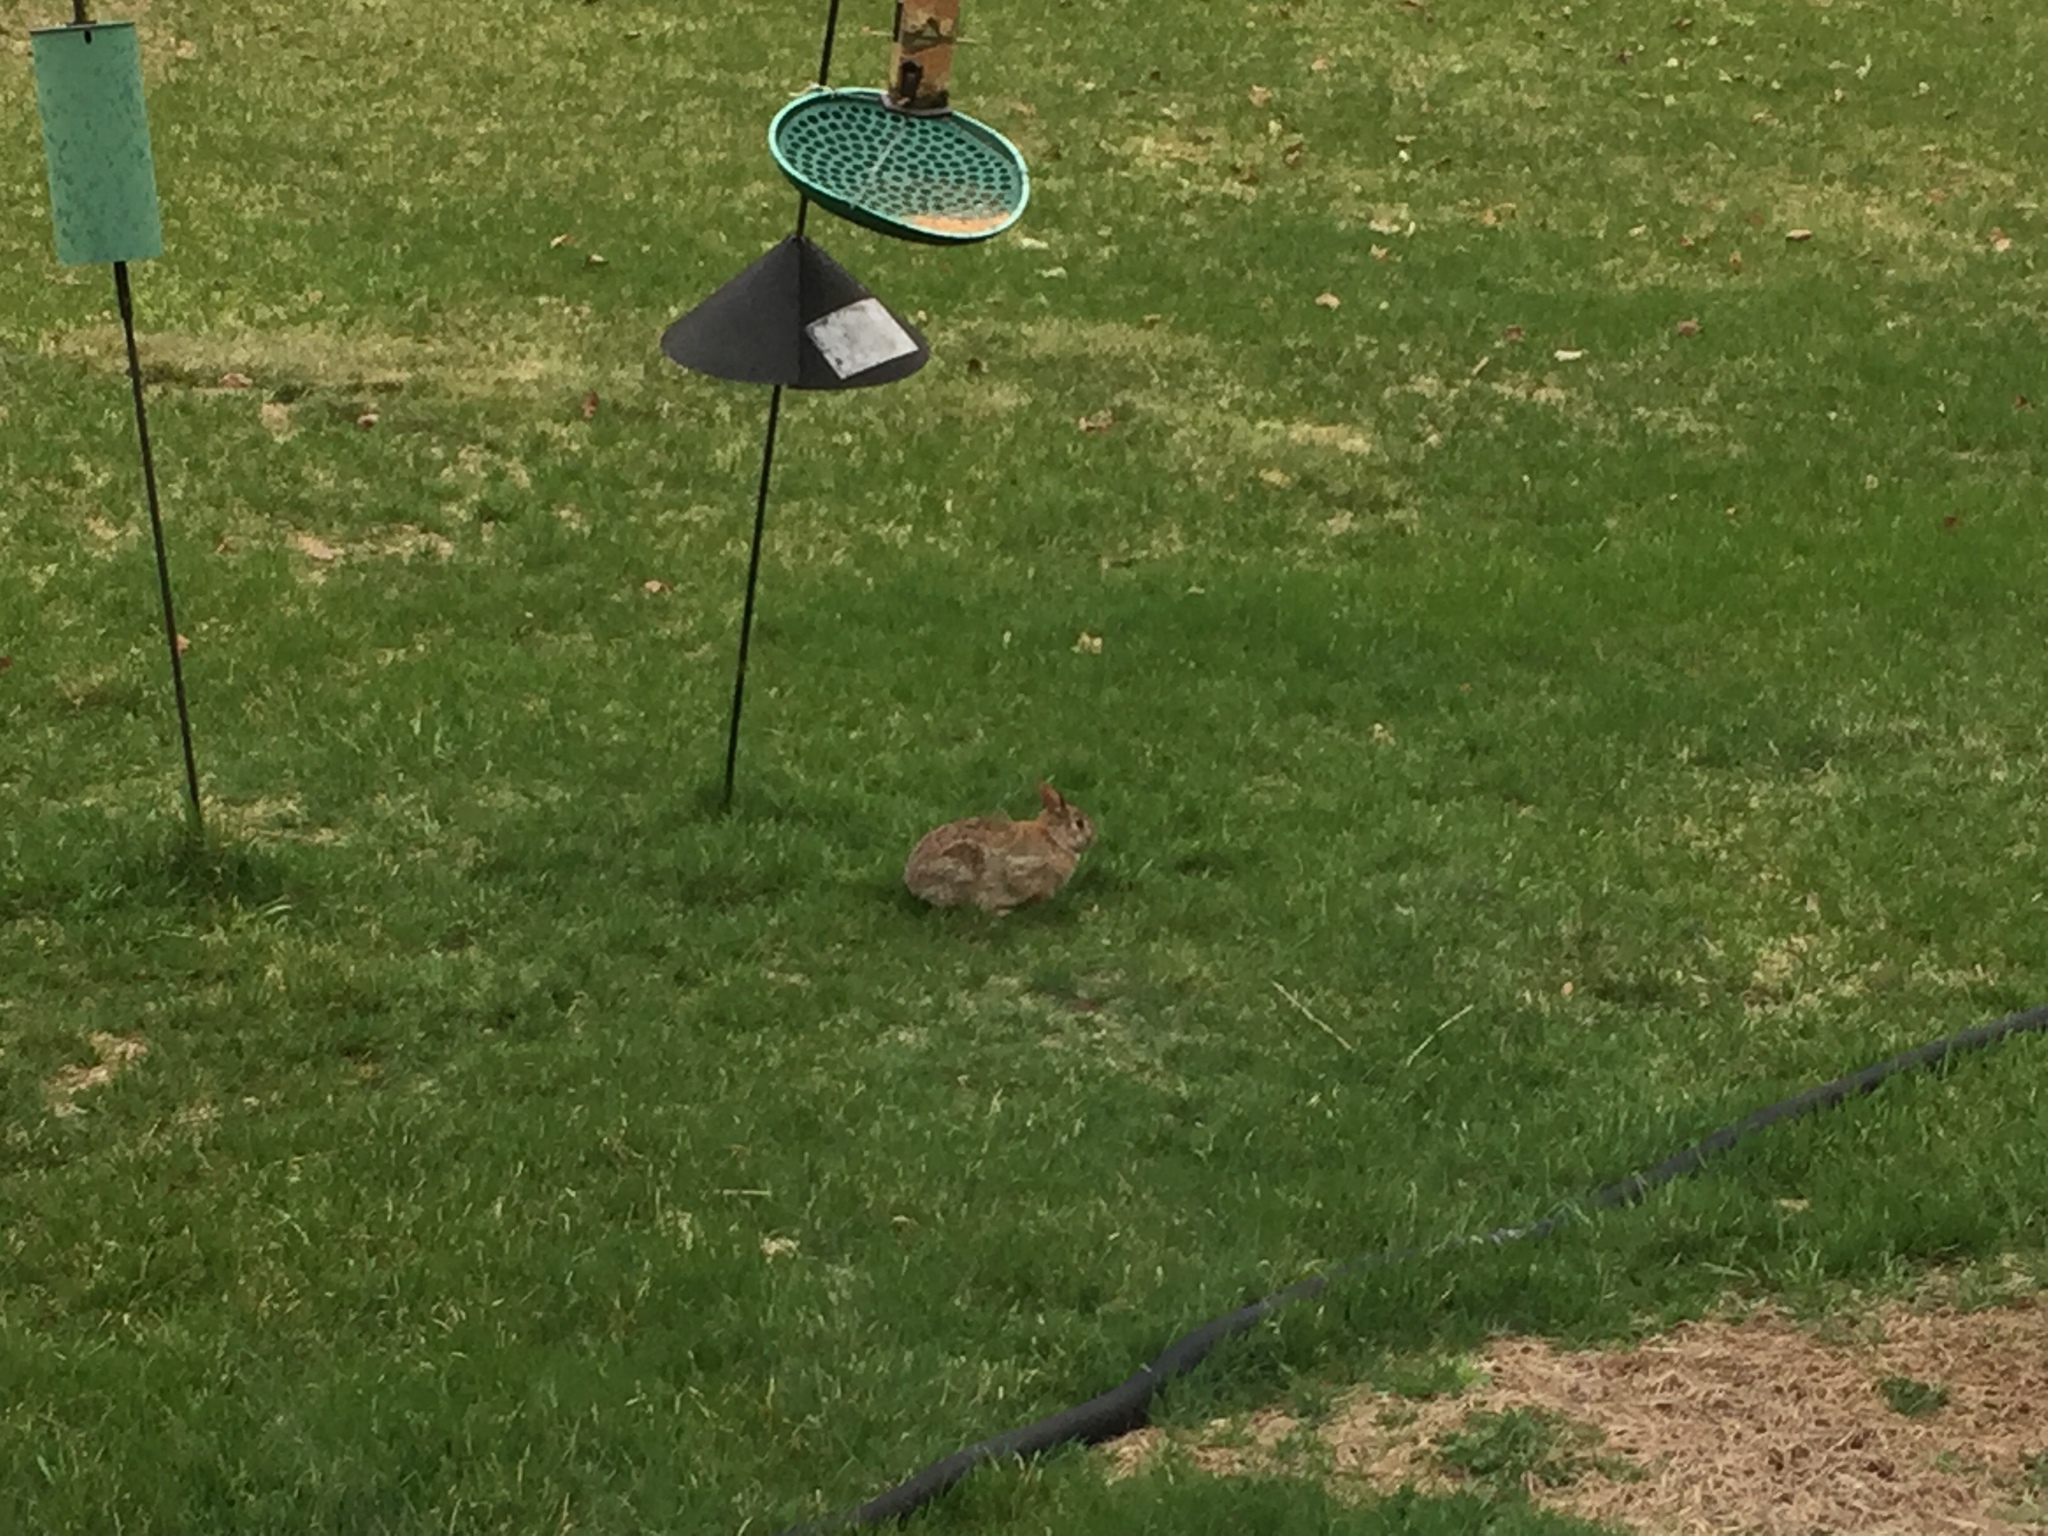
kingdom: Animalia
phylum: Chordata
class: Mammalia
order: Lagomorpha
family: Leporidae
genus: Sylvilagus
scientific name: Sylvilagus floridanus
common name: Eastern cottontail
